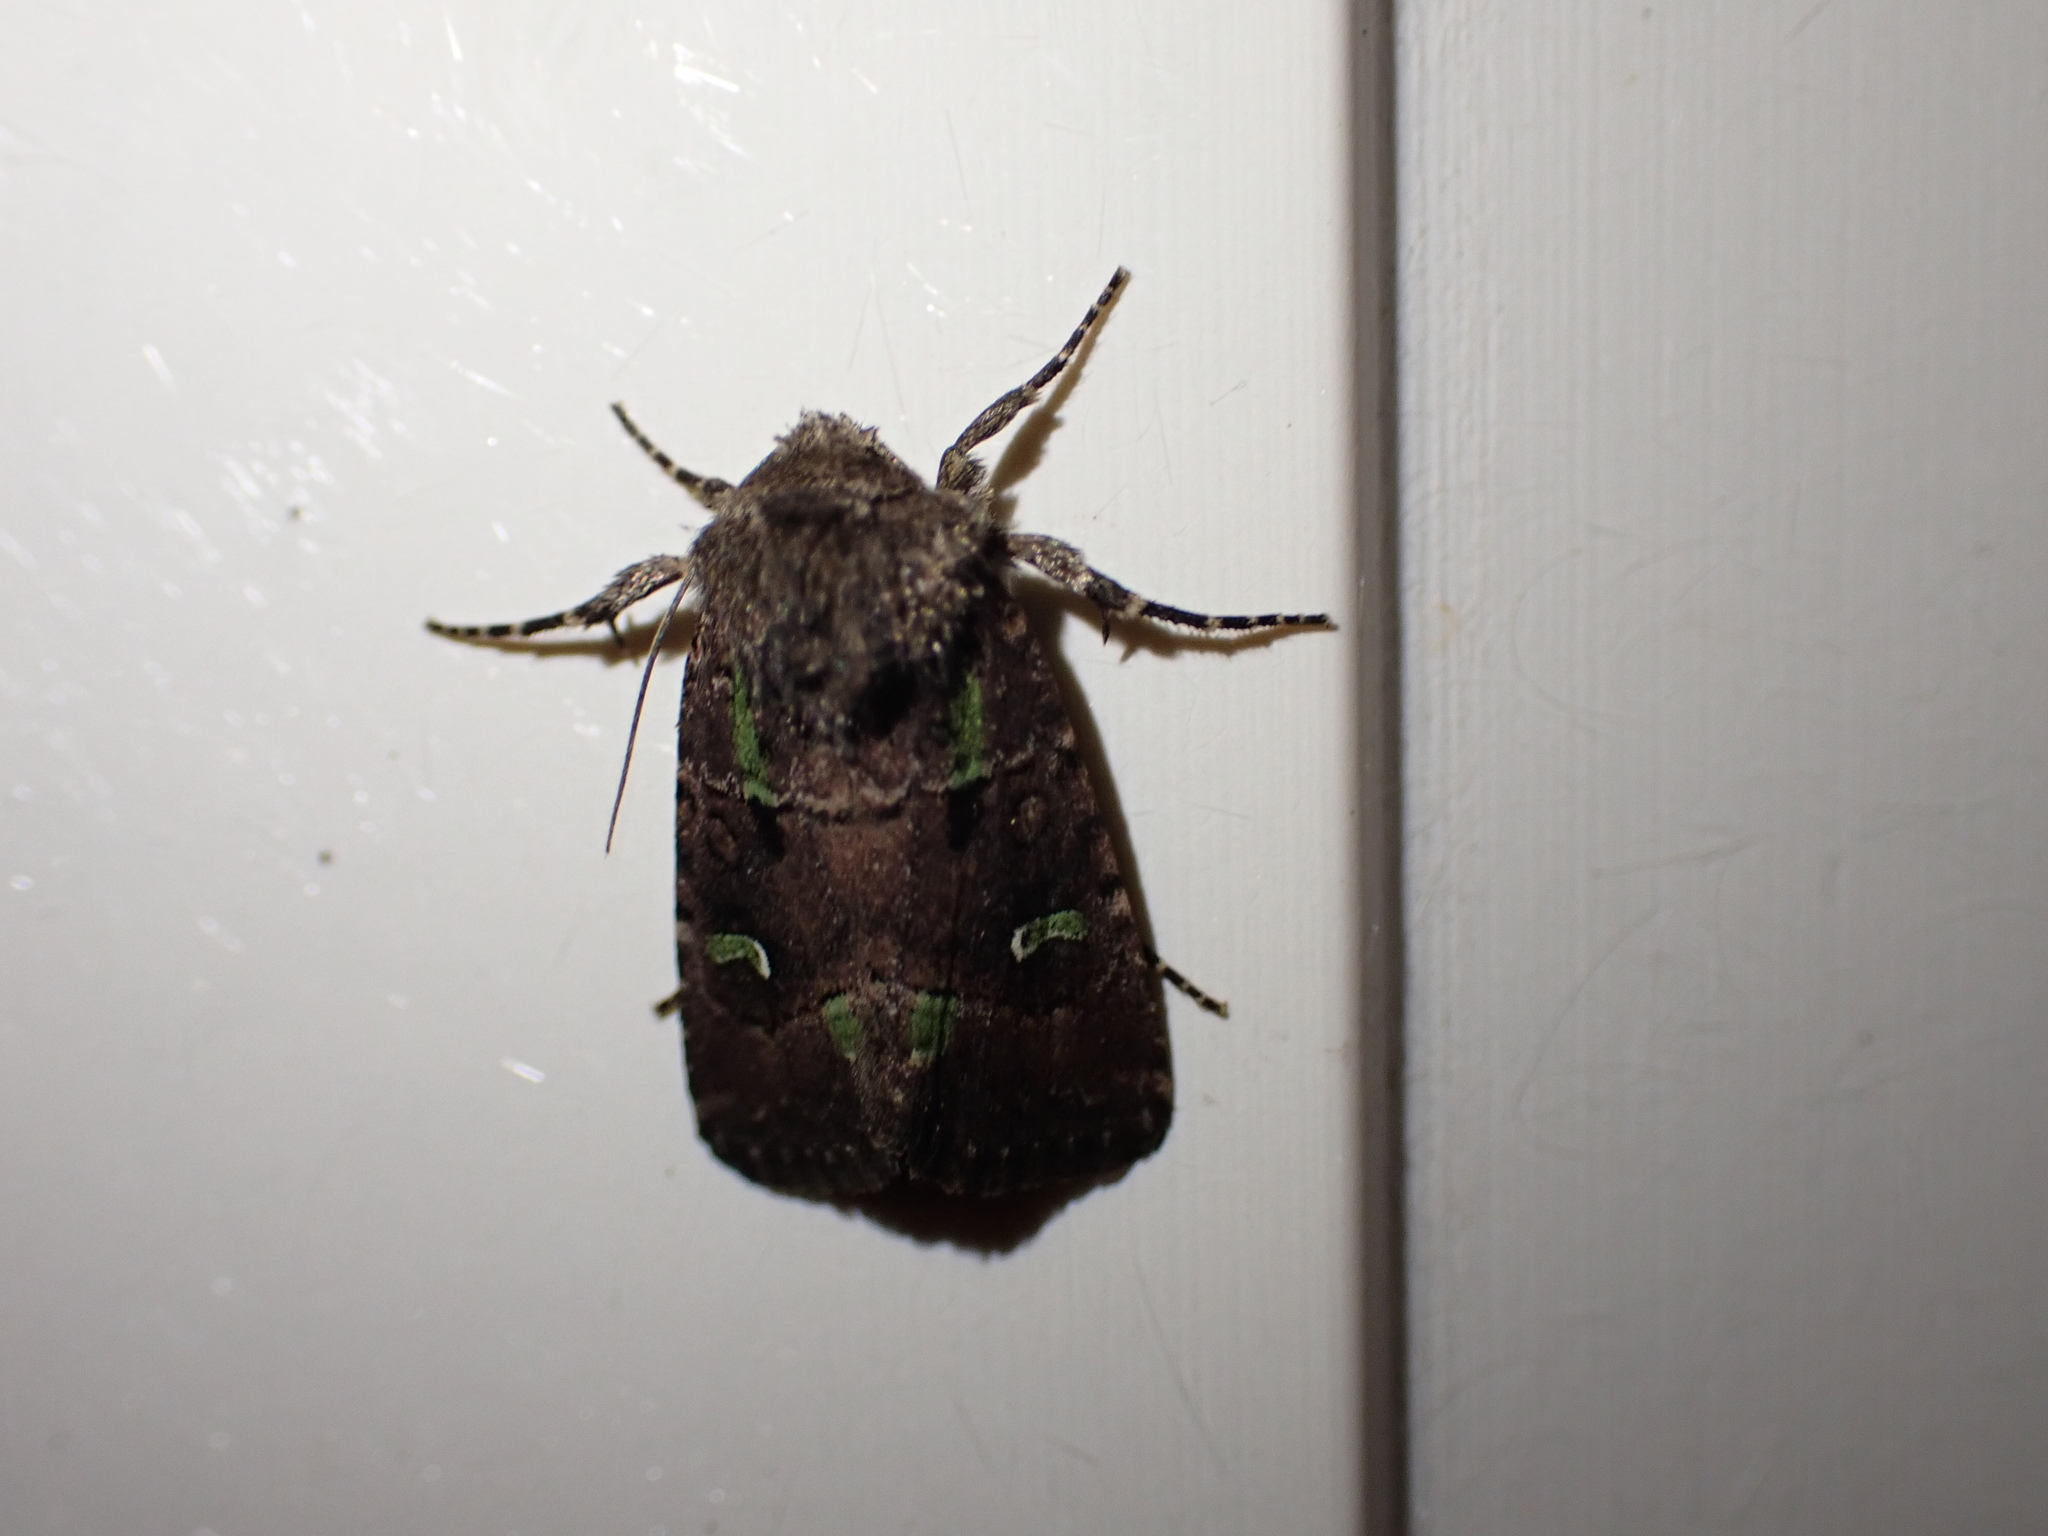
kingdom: Animalia
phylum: Arthropoda
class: Insecta
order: Lepidoptera
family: Noctuidae
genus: Lacinipolia
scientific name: Lacinipolia renigera
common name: Kidney-spotted minor
